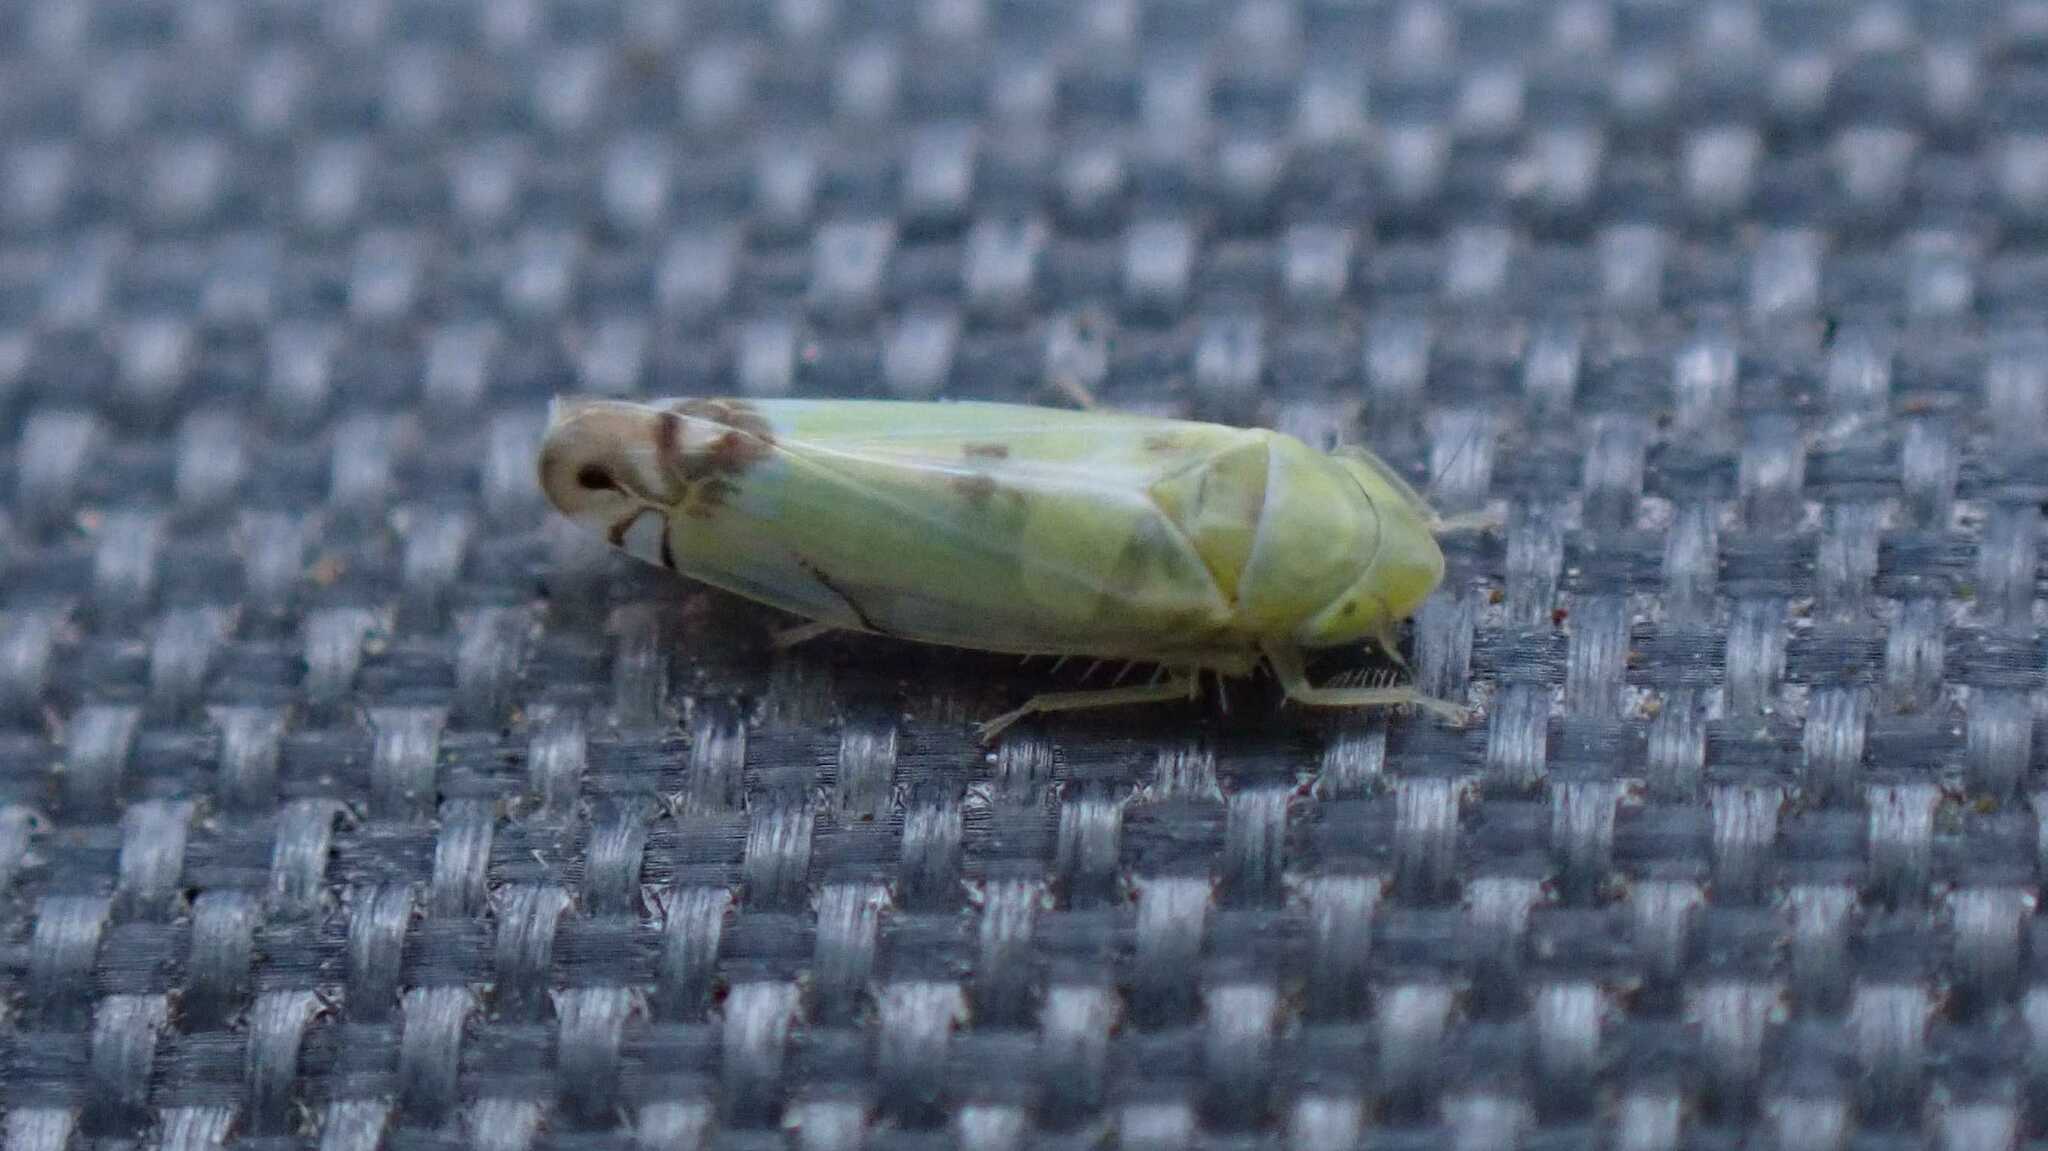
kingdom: Animalia
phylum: Arthropoda
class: Insecta
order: Hemiptera
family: Cicadellidae
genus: Zyginella
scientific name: Zyginella pulchra
